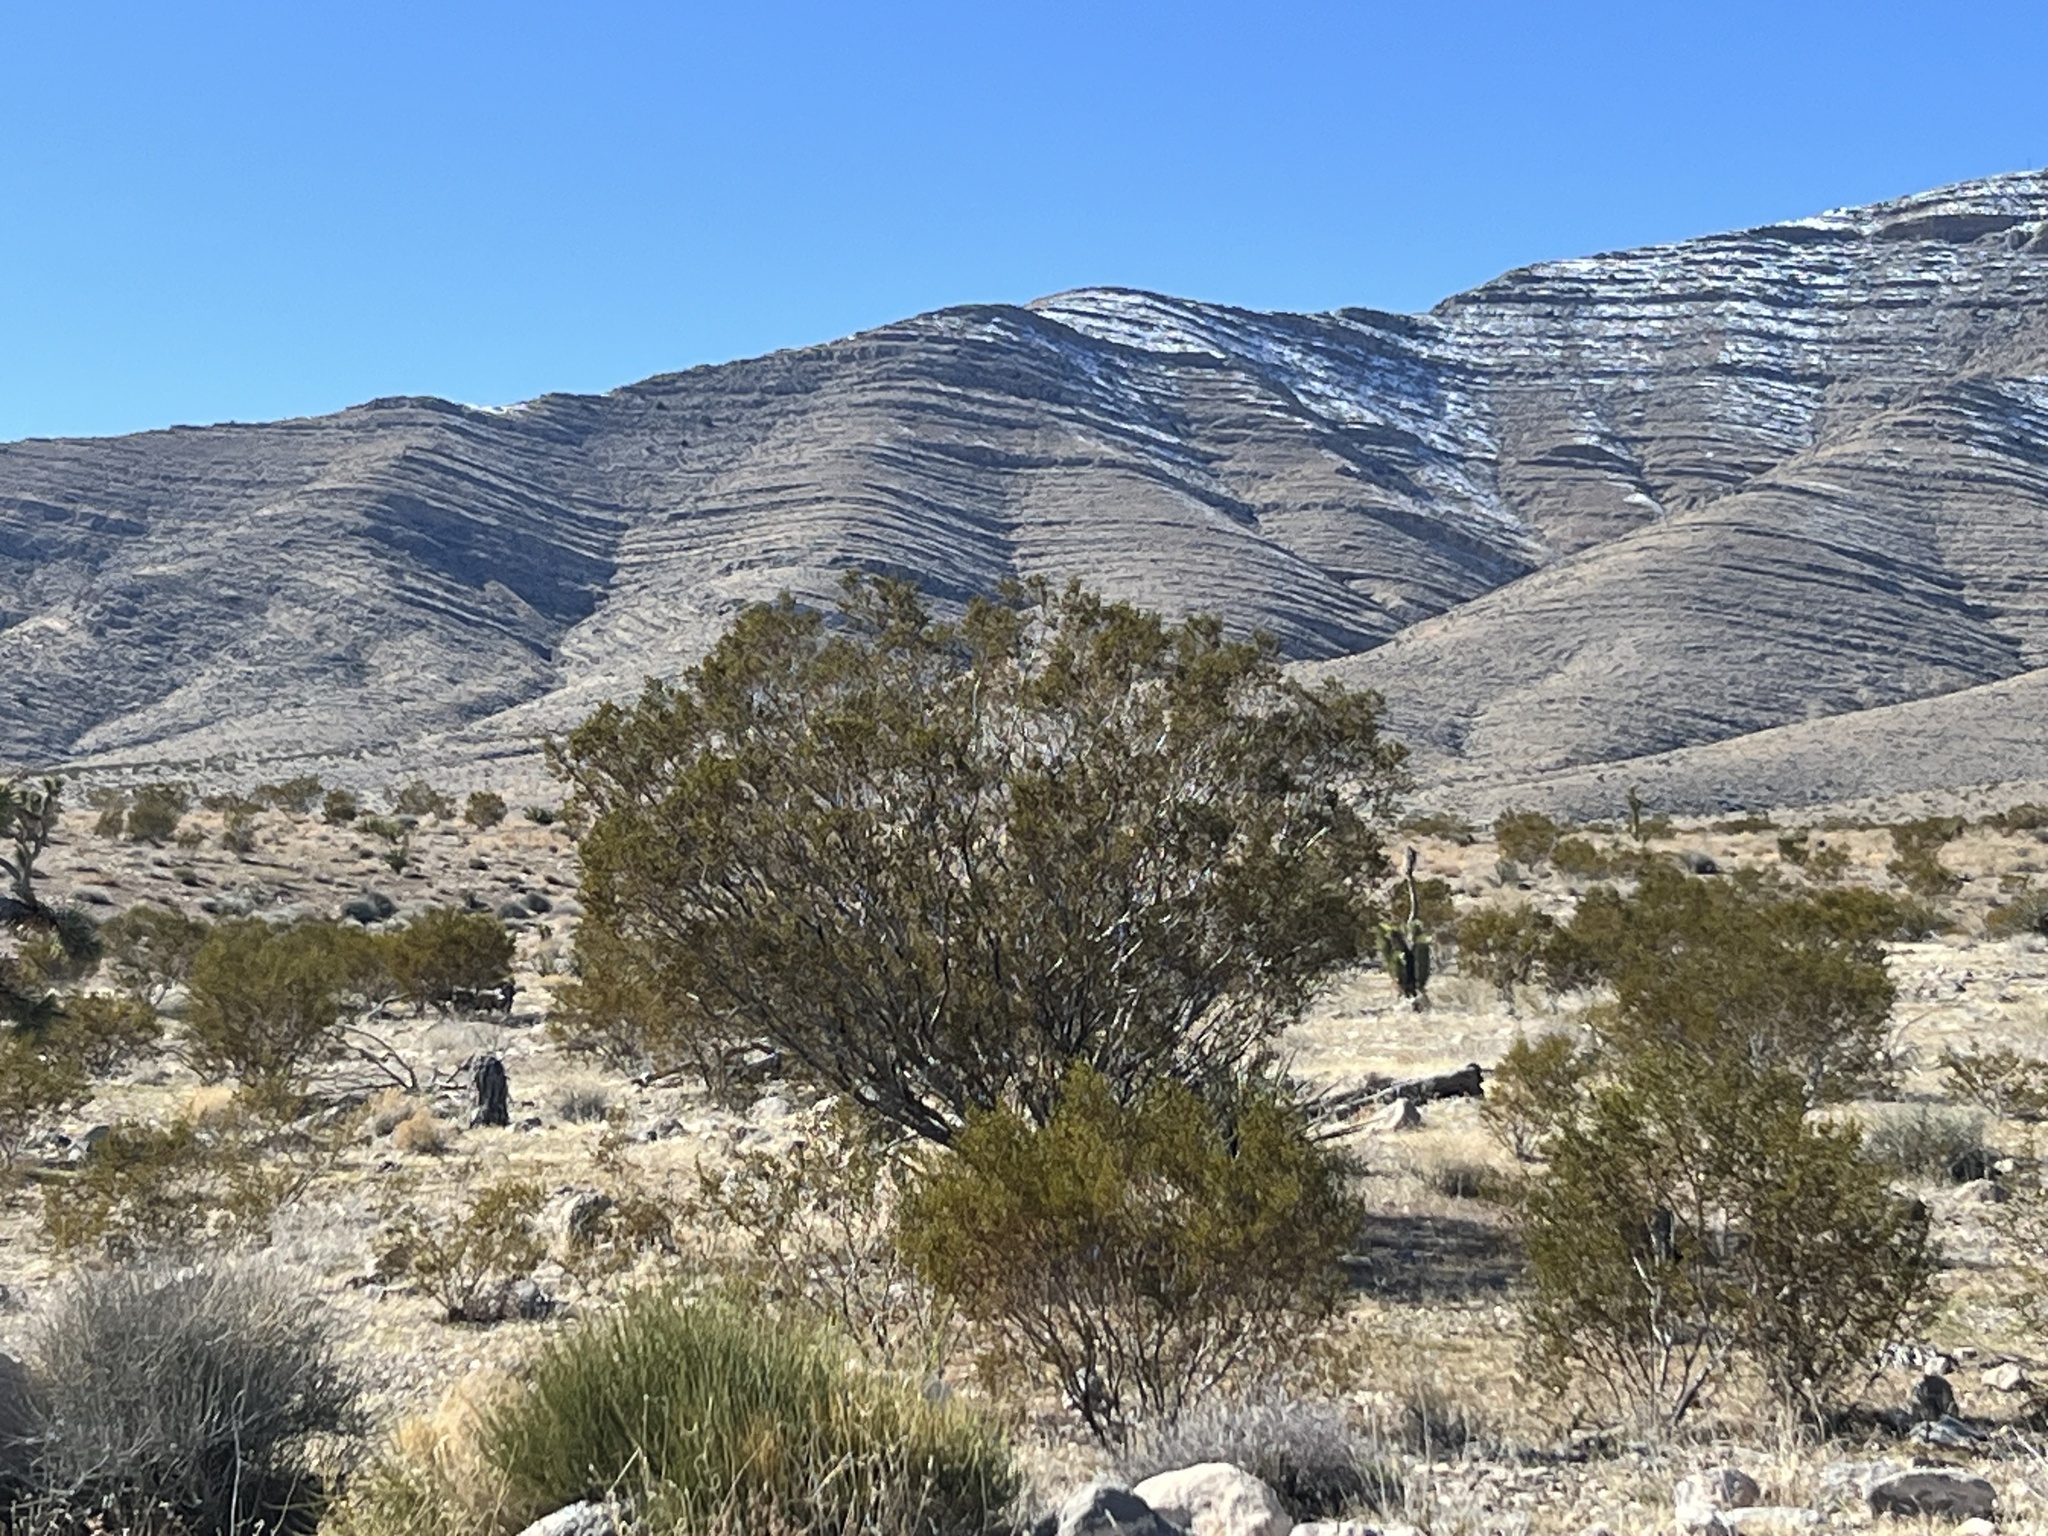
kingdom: Plantae
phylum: Tracheophyta
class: Magnoliopsida
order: Zygophyllales
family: Zygophyllaceae
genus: Larrea
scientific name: Larrea tridentata
